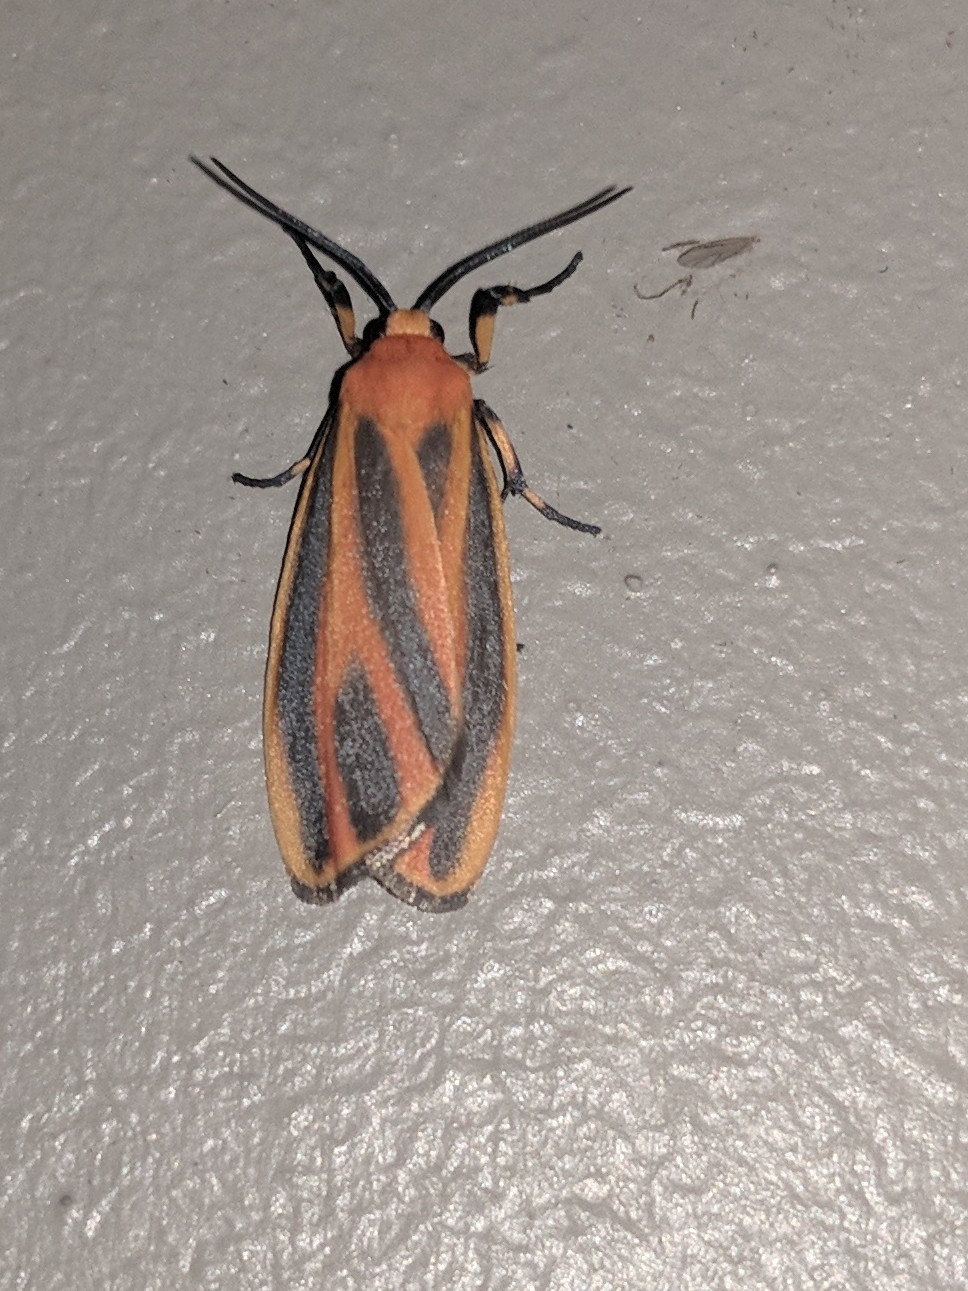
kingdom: Animalia
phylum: Arthropoda
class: Insecta
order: Lepidoptera
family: Erebidae
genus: Hypoprepia
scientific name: Hypoprepia fucosa
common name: Painted lichen moth
